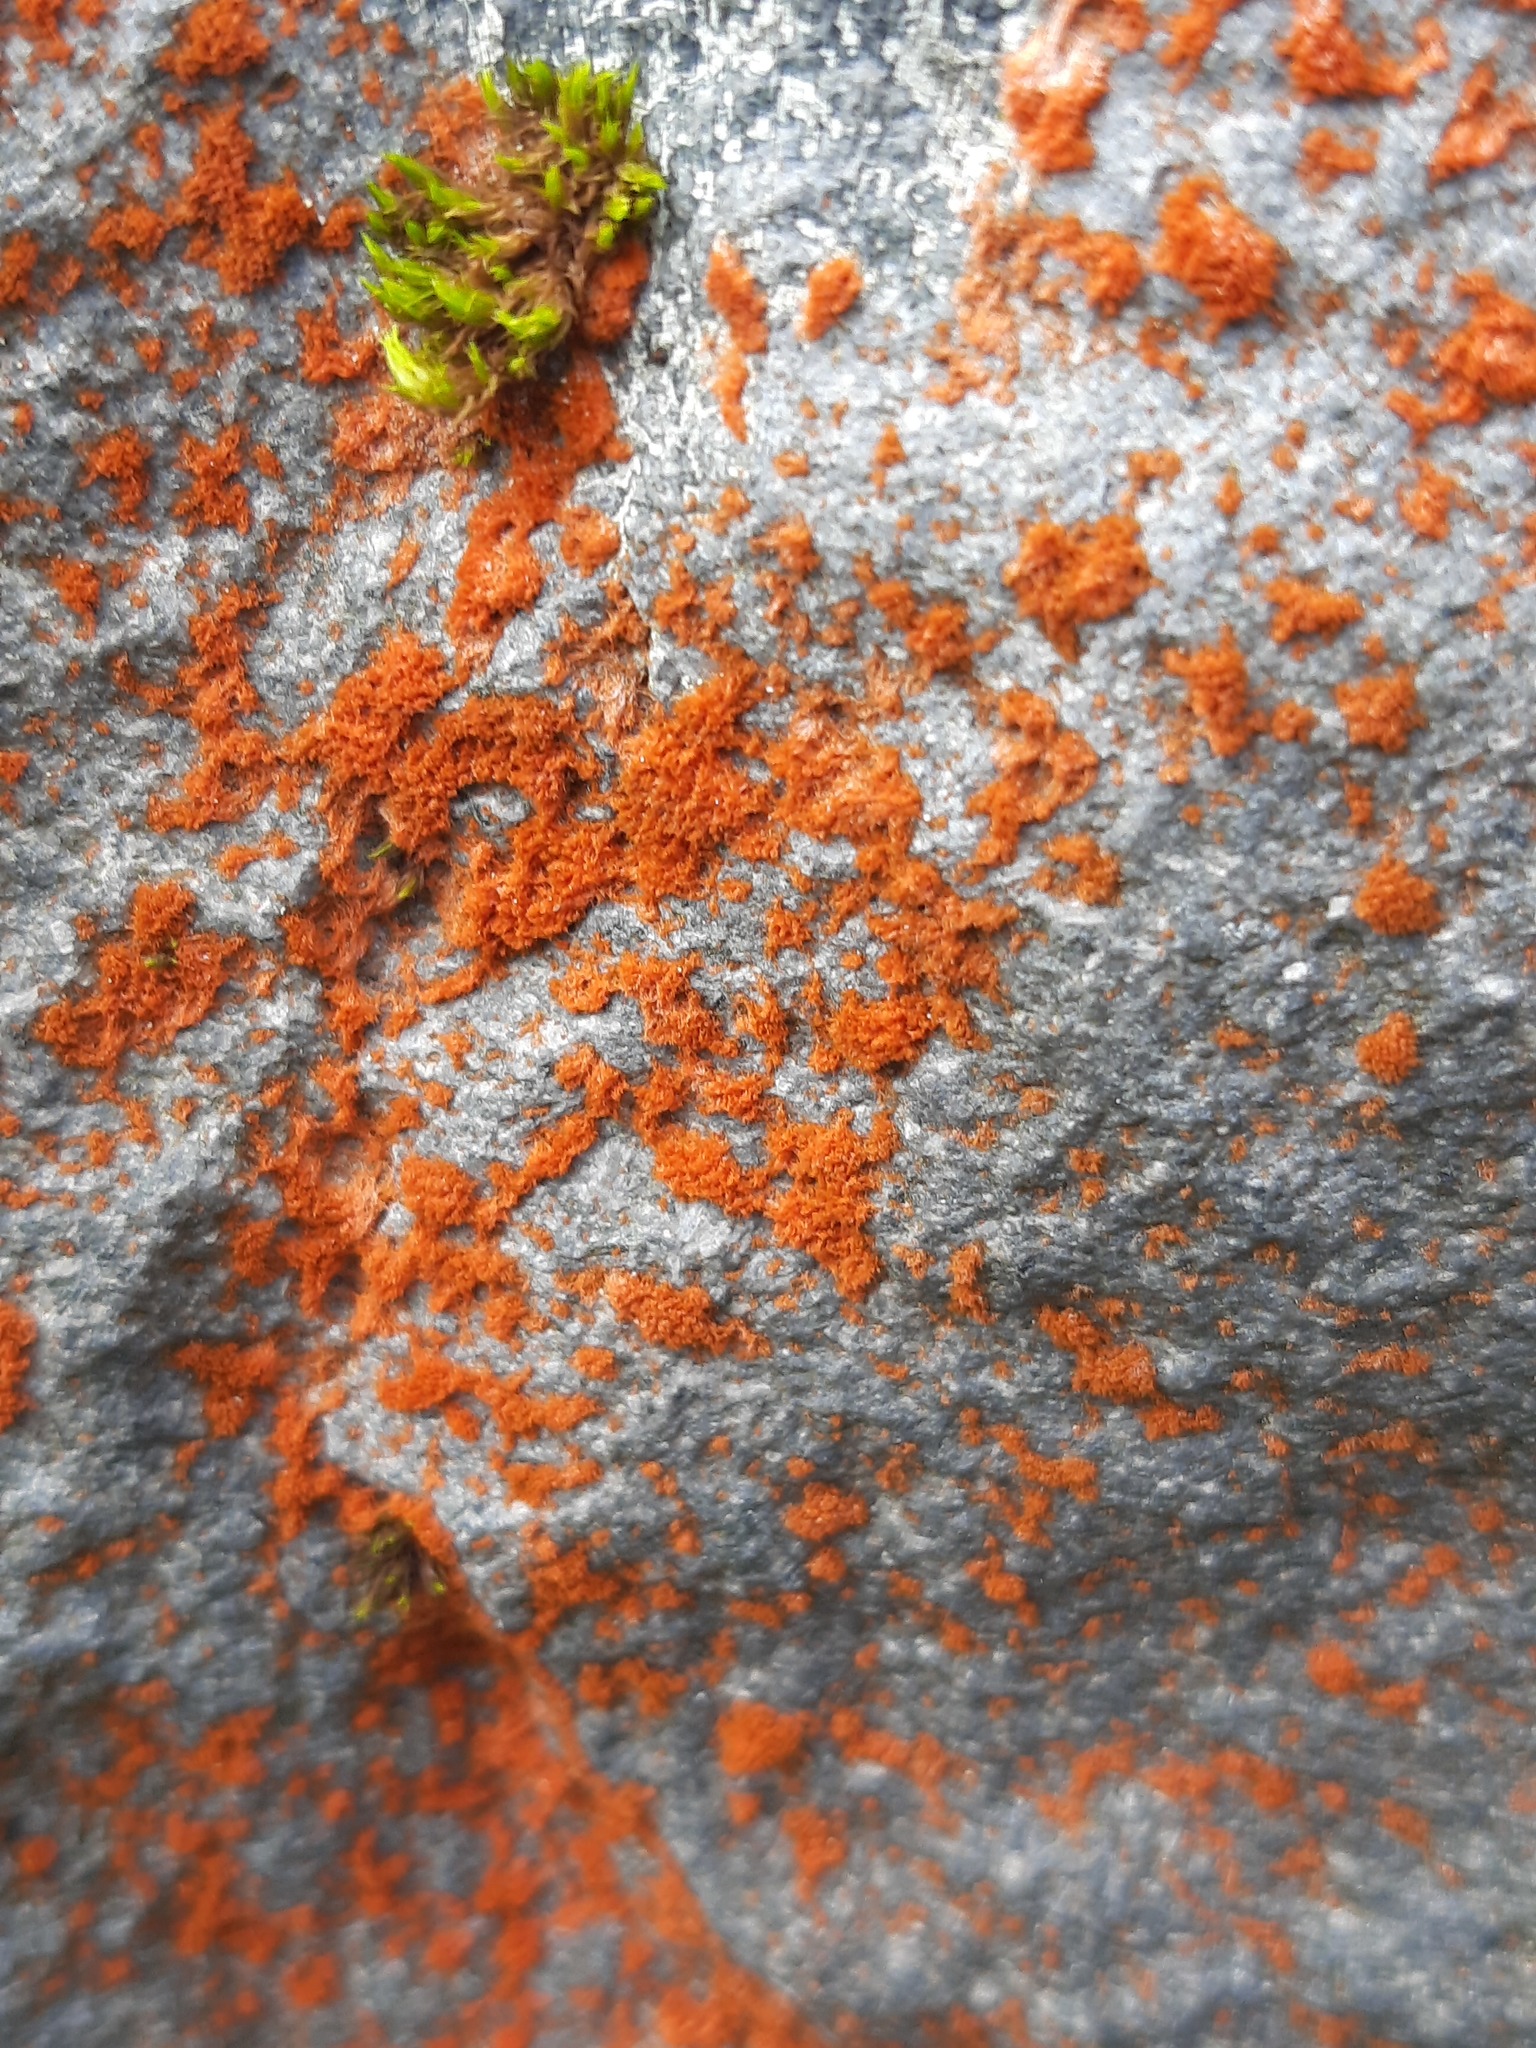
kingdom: Plantae
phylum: Chlorophyta
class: Ulvophyceae
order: Trentepohliales
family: Trentepohliaceae
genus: Trentepohlia
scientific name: Trentepohlia aurea
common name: Orange rock hair
